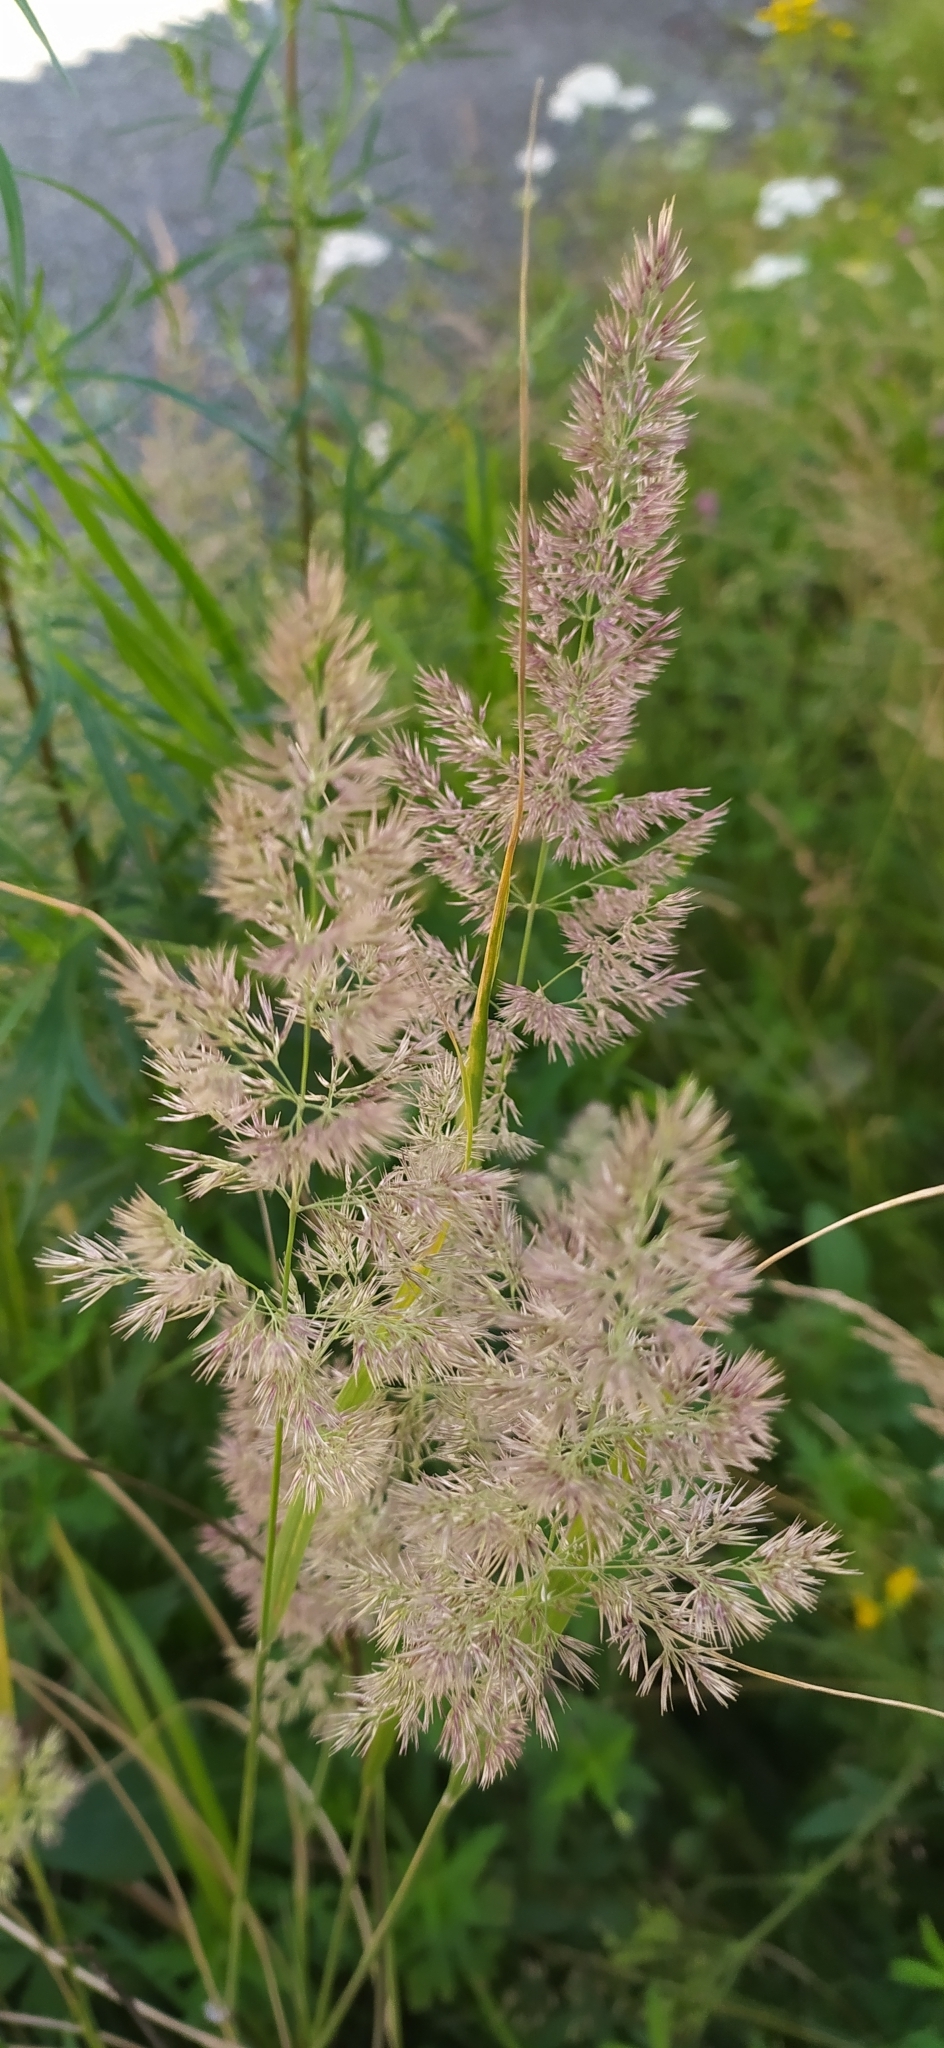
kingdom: Plantae
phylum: Tracheophyta
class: Liliopsida
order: Poales
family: Poaceae
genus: Calamagrostis
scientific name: Calamagrostis epigejos
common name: Wood small-reed
